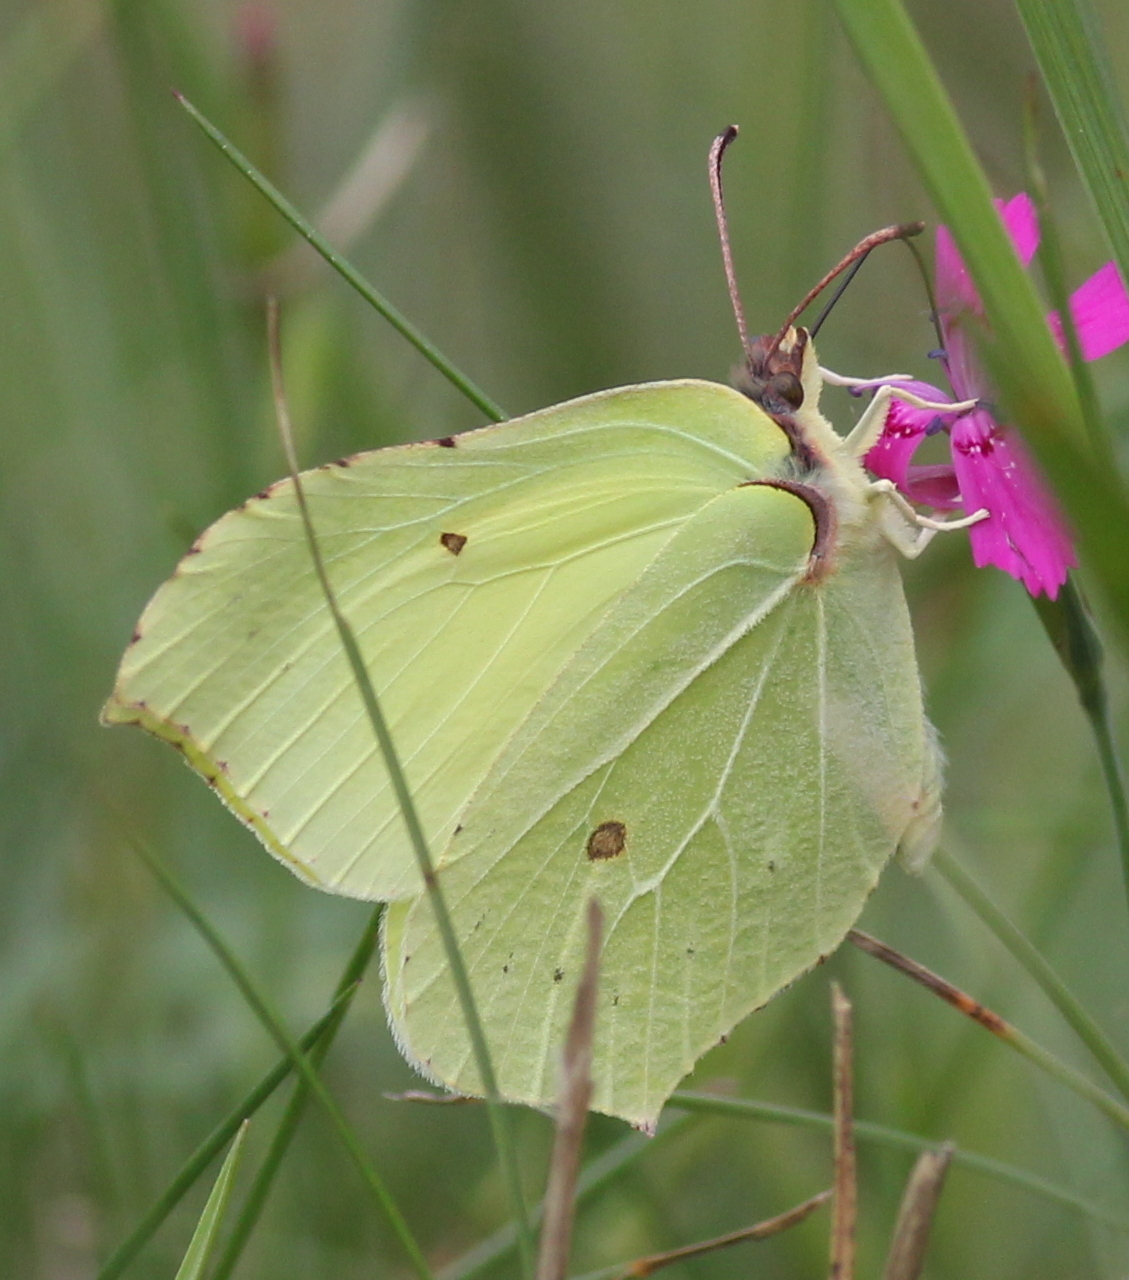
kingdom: Animalia
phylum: Arthropoda
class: Insecta
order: Lepidoptera
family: Pieridae
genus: Gonepteryx
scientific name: Gonepteryx rhamni
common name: Brimstone
